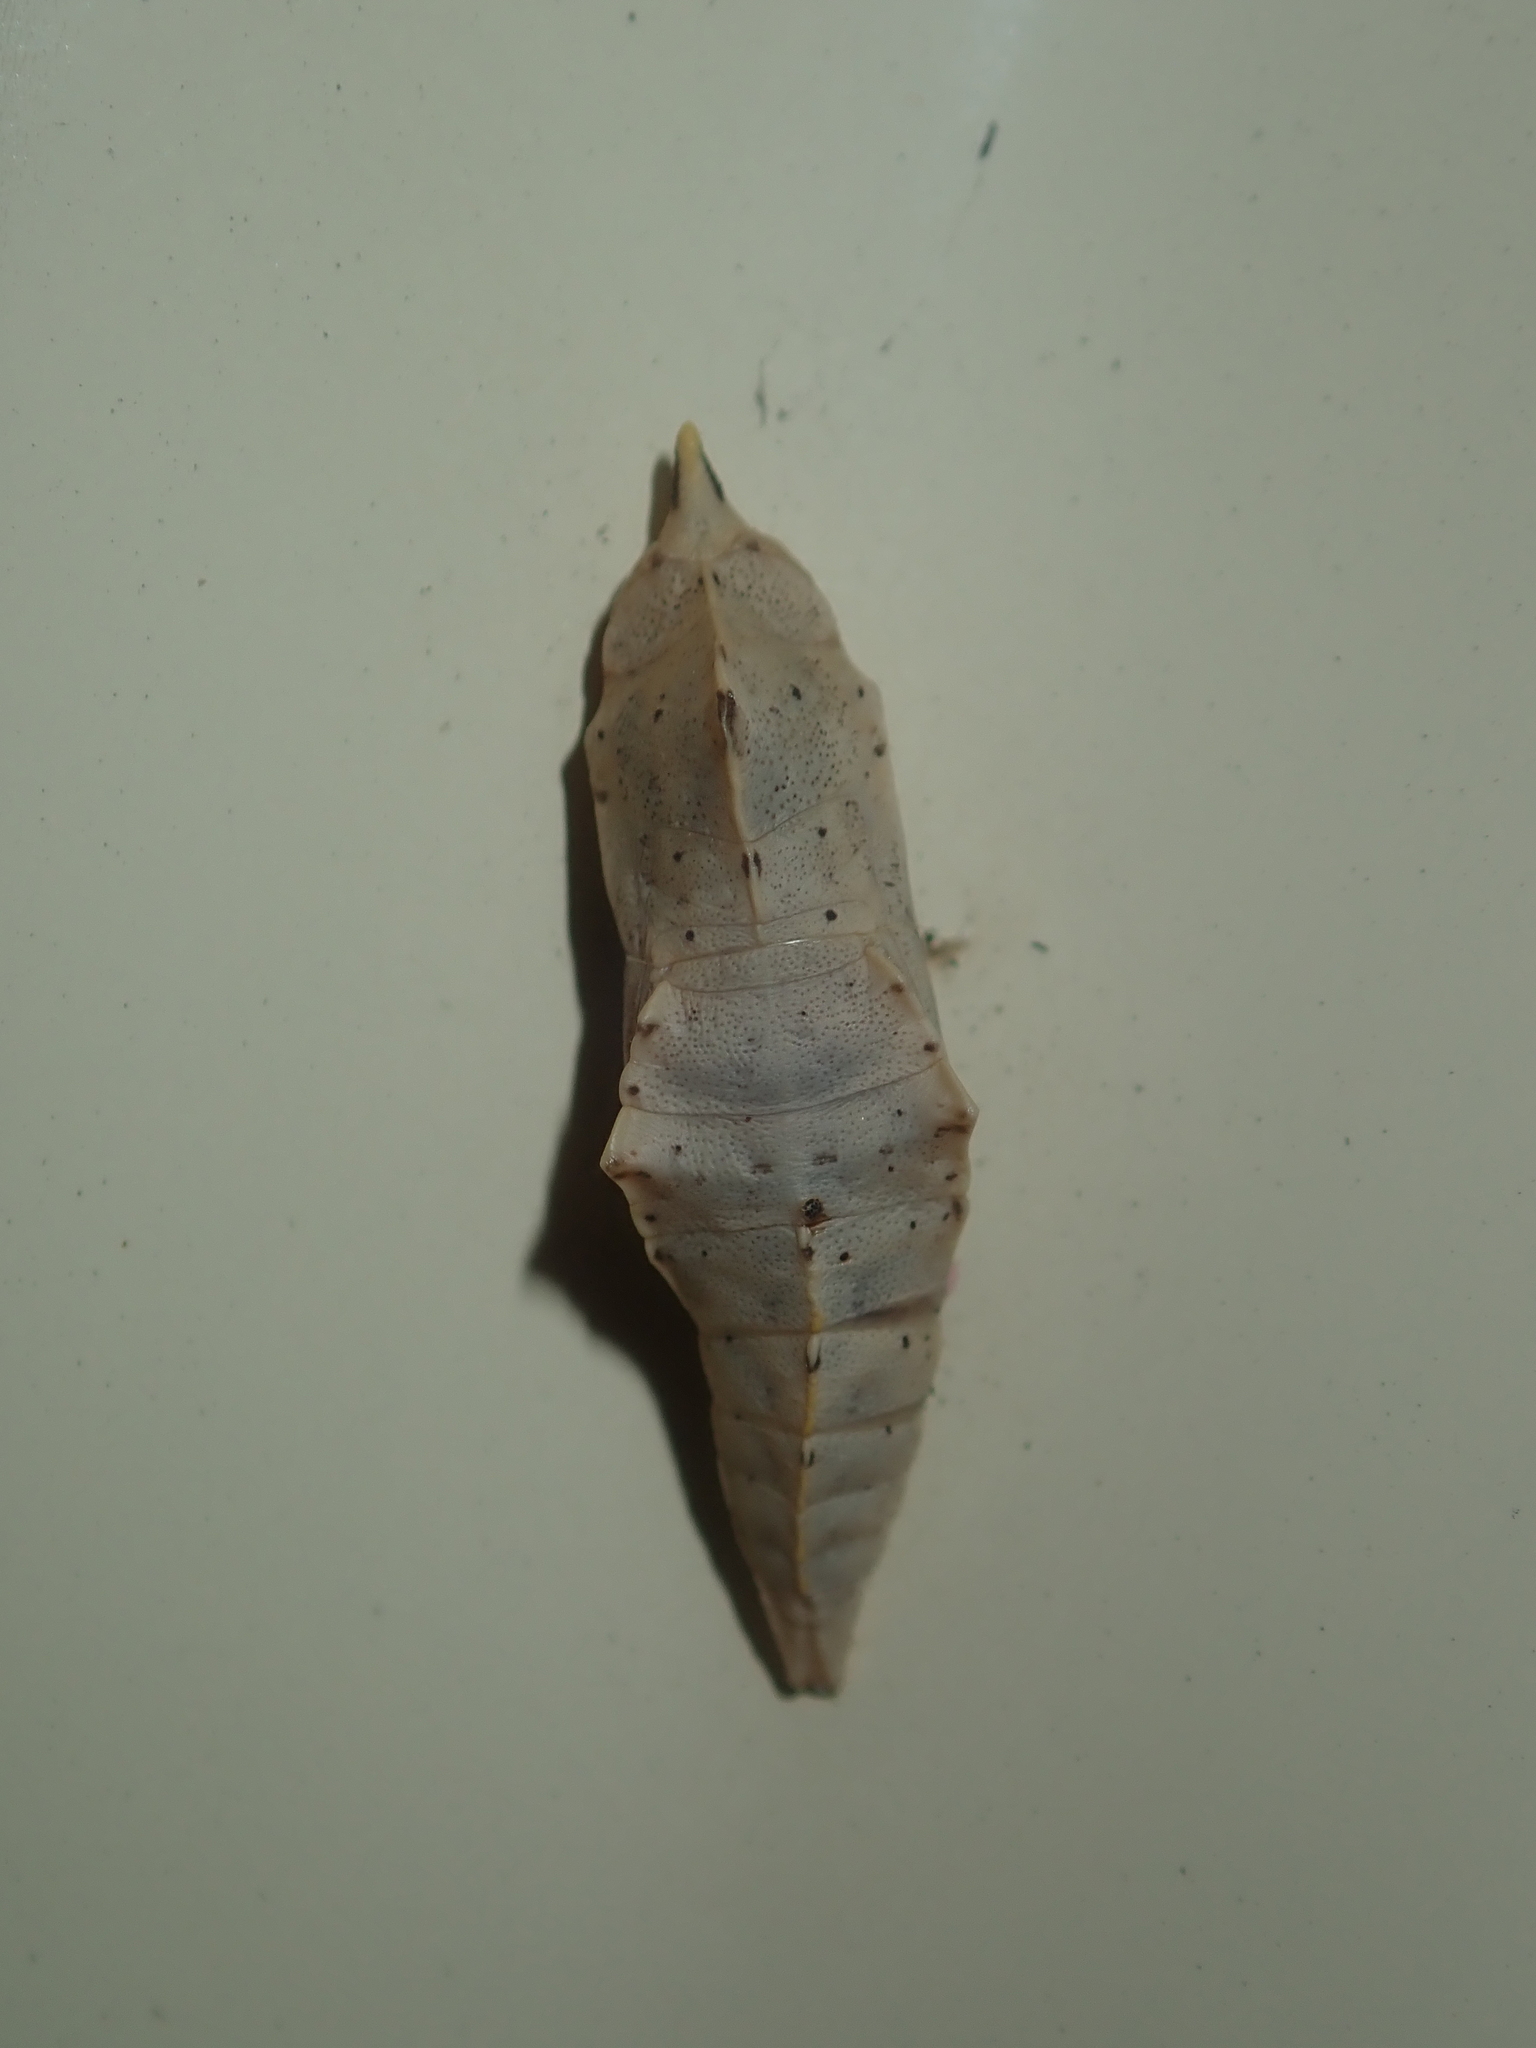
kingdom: Animalia
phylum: Arthropoda
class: Insecta
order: Lepidoptera
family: Pieridae
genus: Pieris
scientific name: Pieris rapae
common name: Small white
